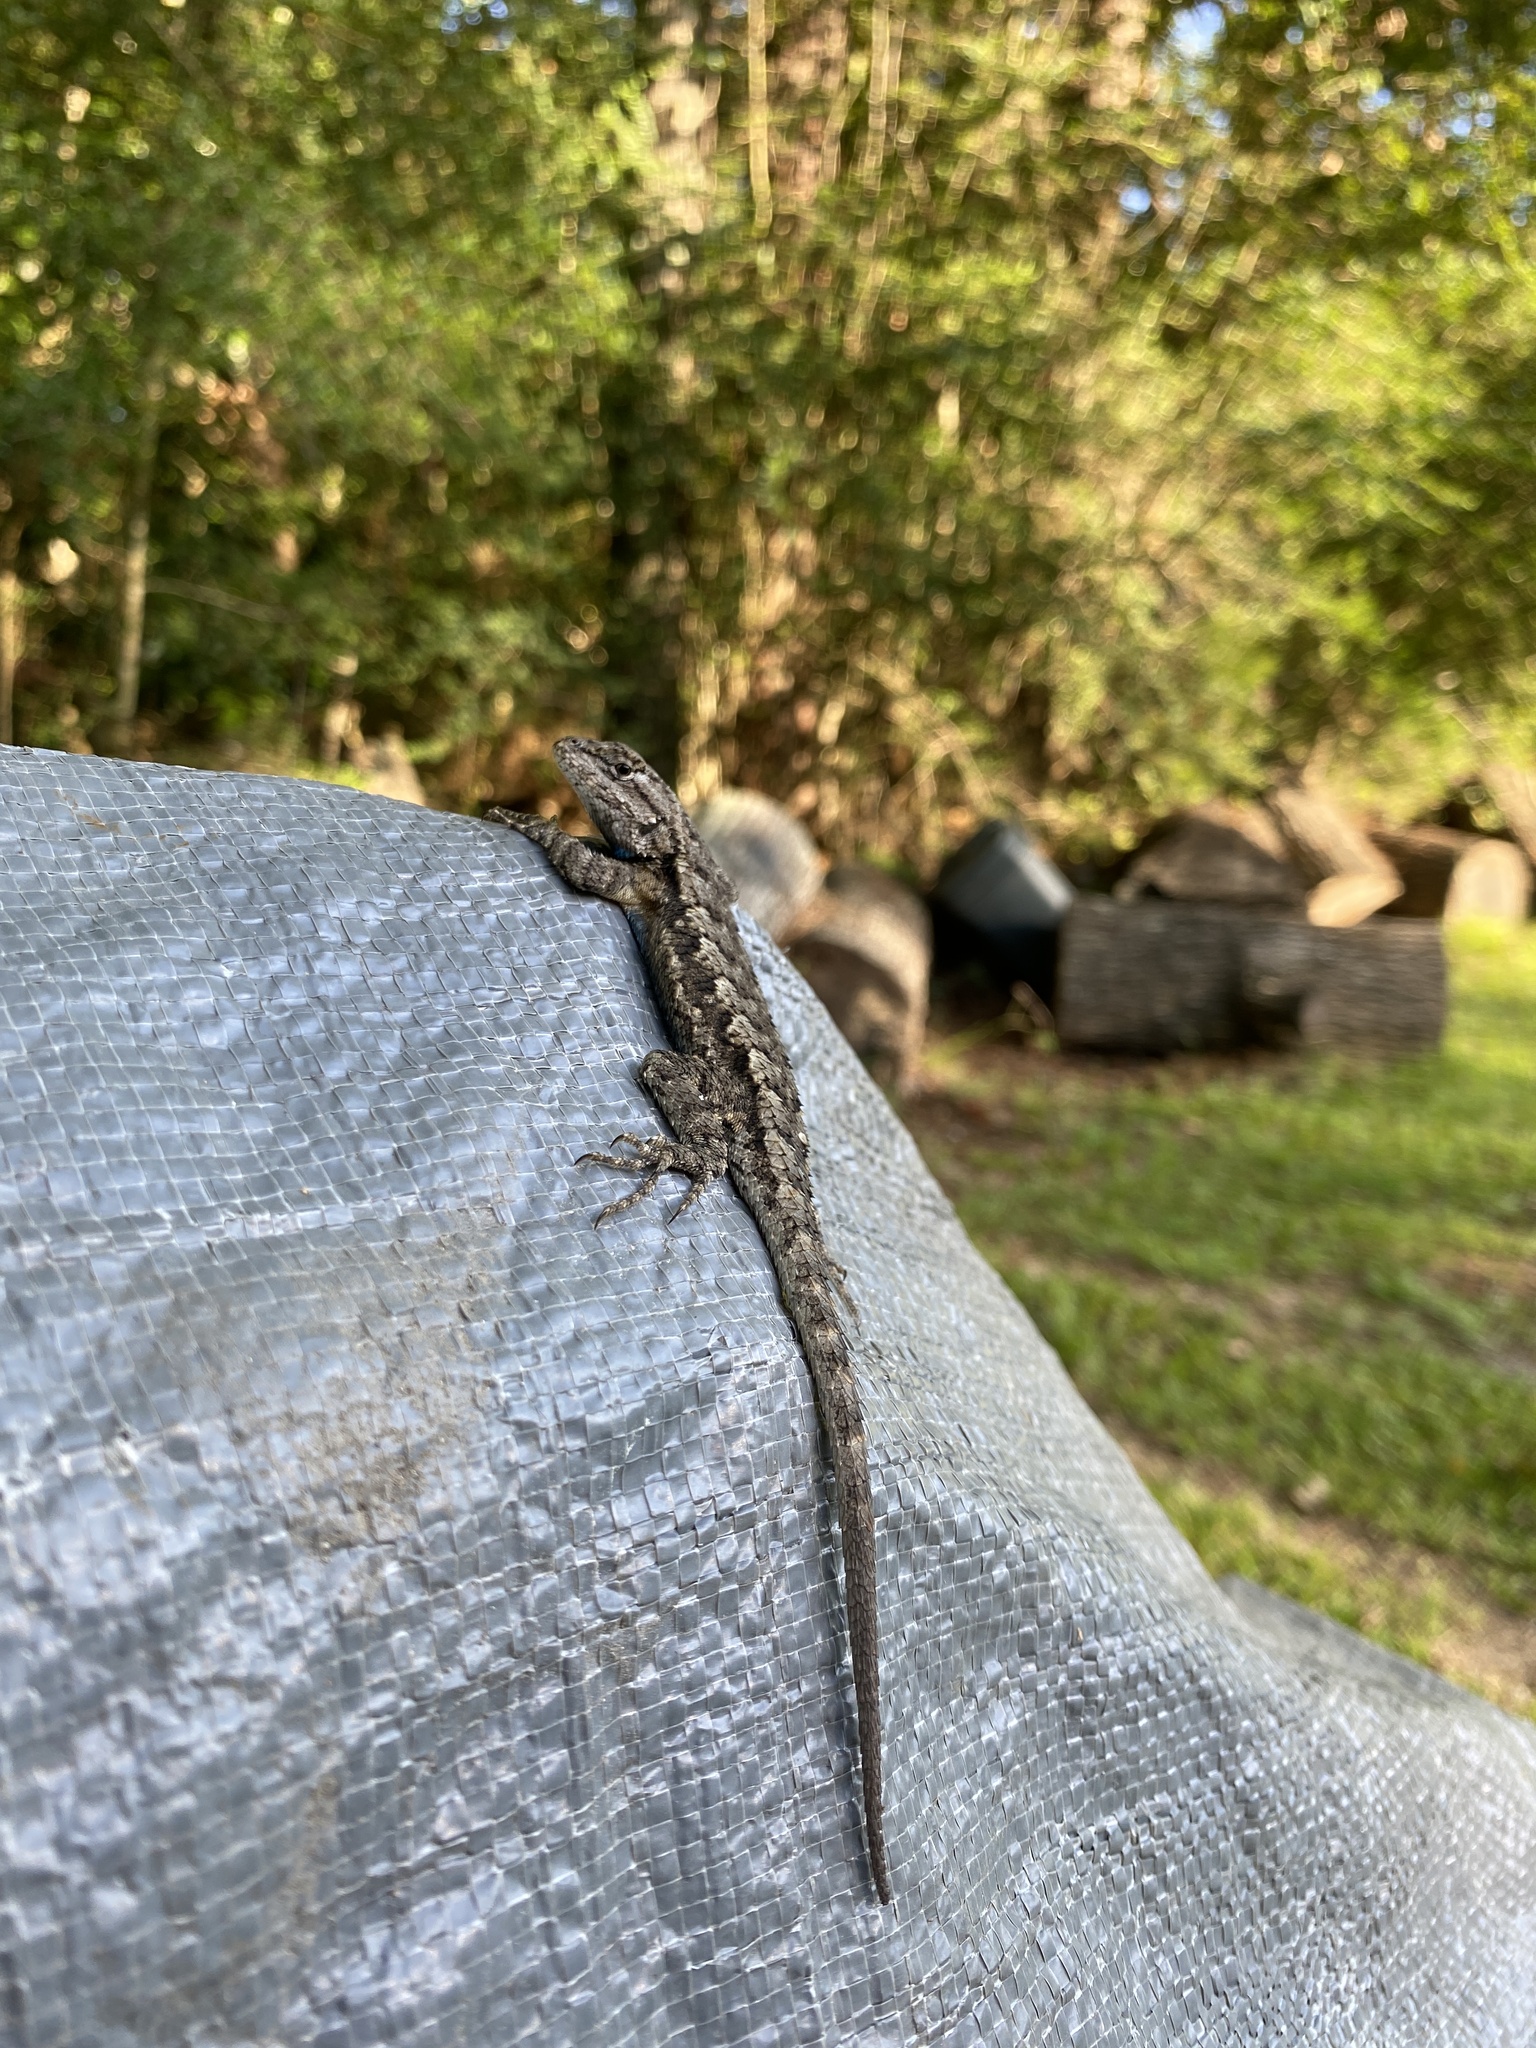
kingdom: Animalia
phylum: Chordata
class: Squamata
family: Phrynosomatidae
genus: Sceloporus
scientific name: Sceloporus consobrinus
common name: Southern prairie lizard
